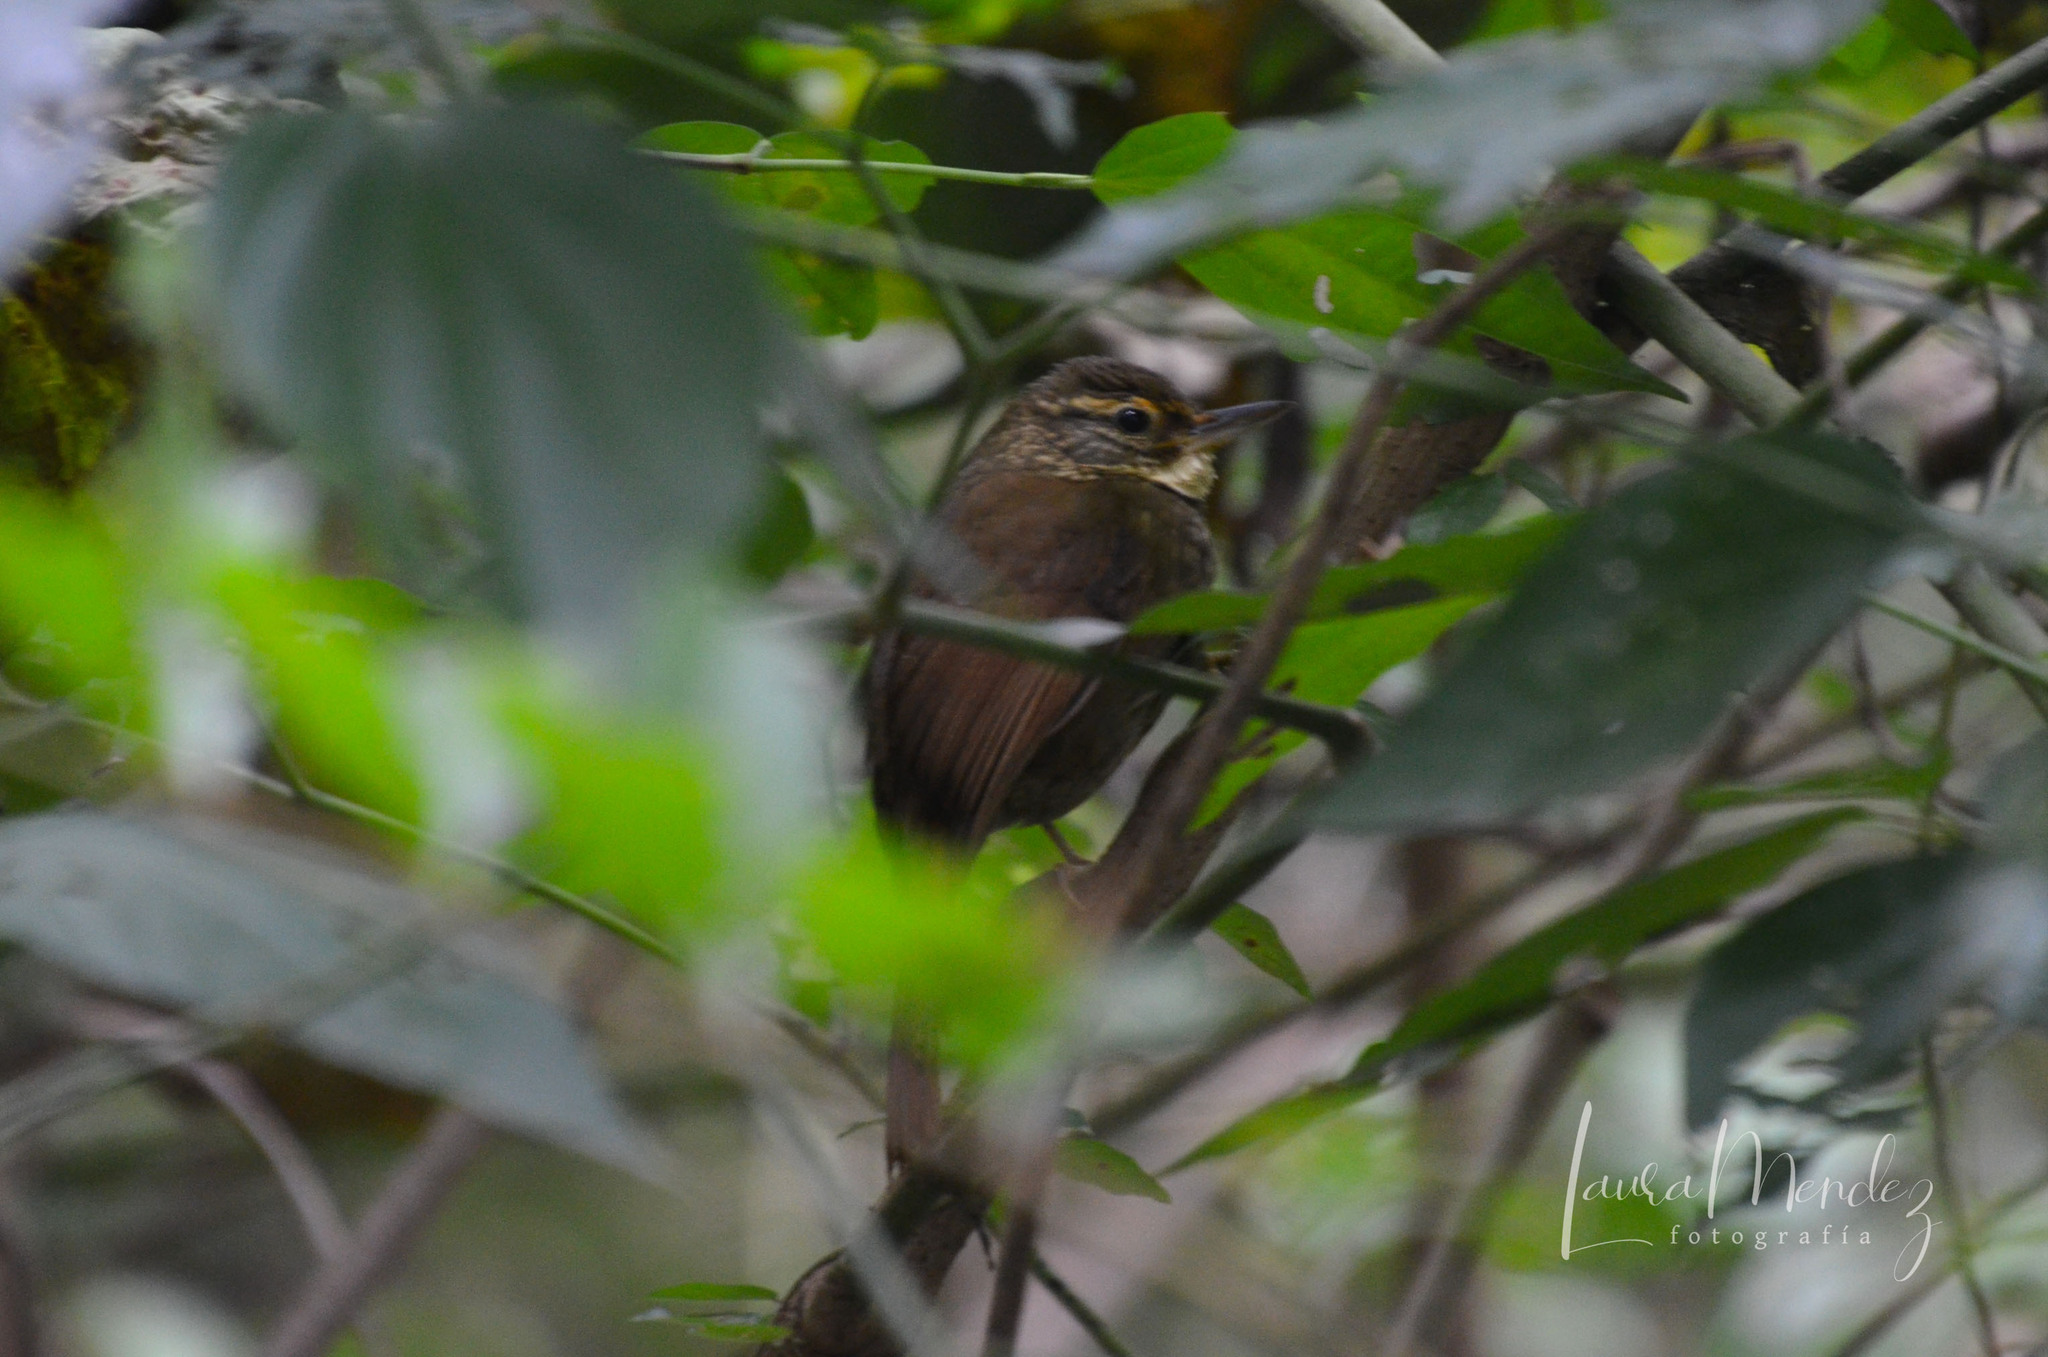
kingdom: Animalia
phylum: Chordata
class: Aves
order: Passeriformes
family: Furnariidae
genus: Syndactyla
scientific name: Syndactyla rufosuperciliata
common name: Buff-browed foliage-gleaner
